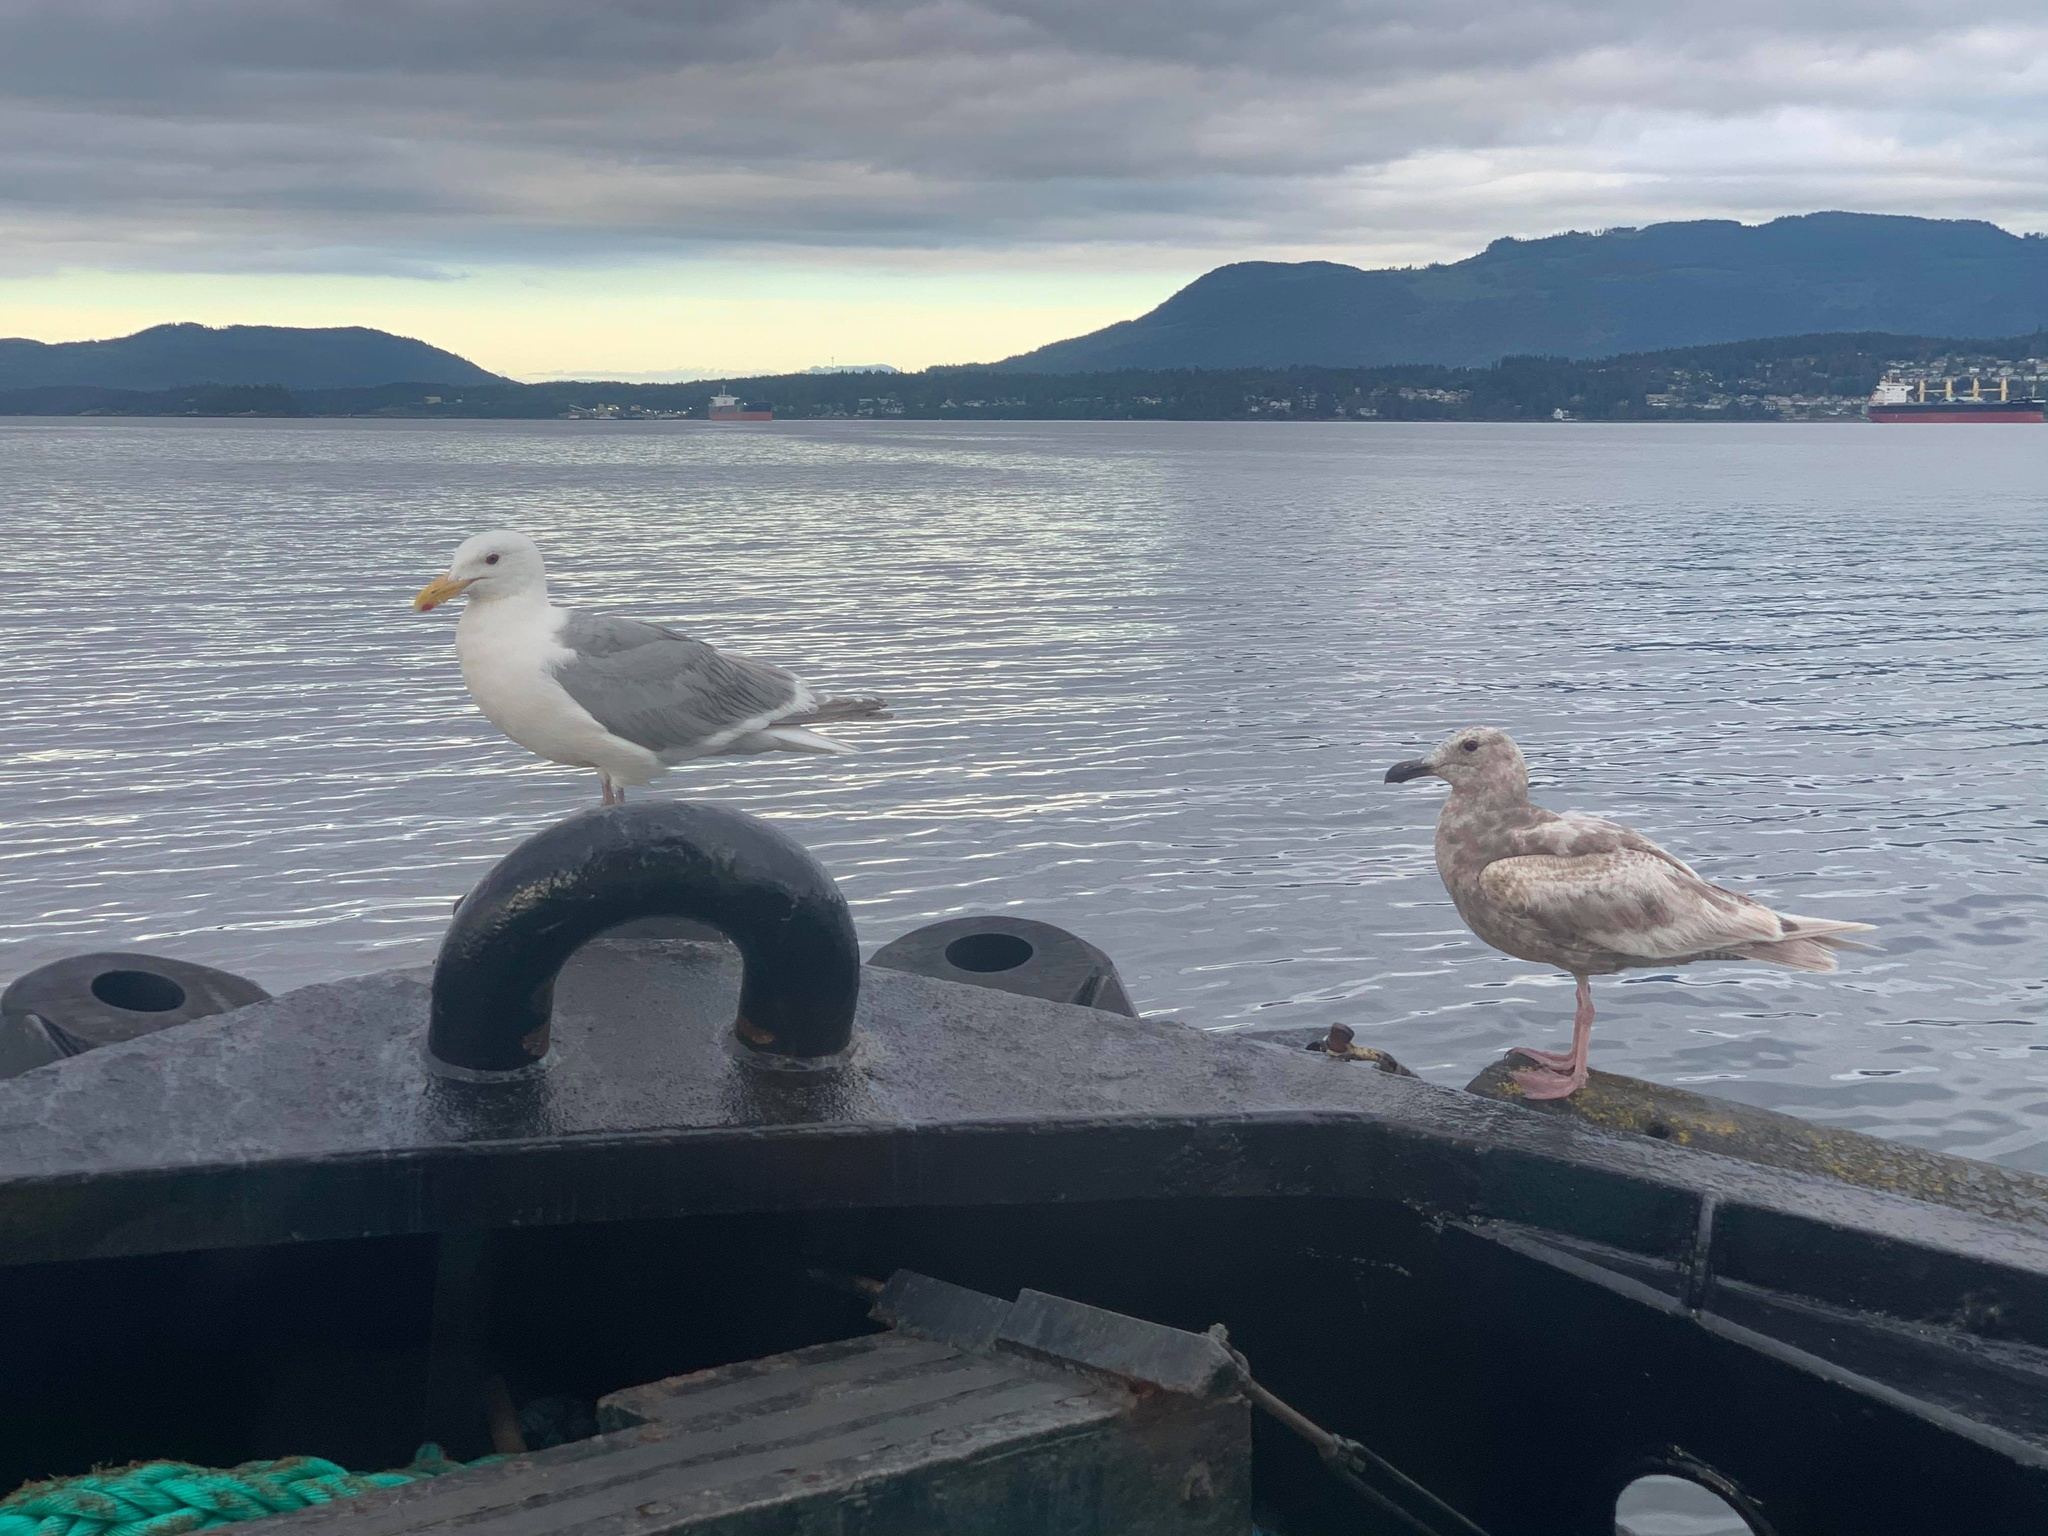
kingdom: Animalia
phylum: Chordata
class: Aves
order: Charadriiformes
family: Laridae
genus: Larus
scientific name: Larus glaucescens
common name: Glaucous-winged gull
